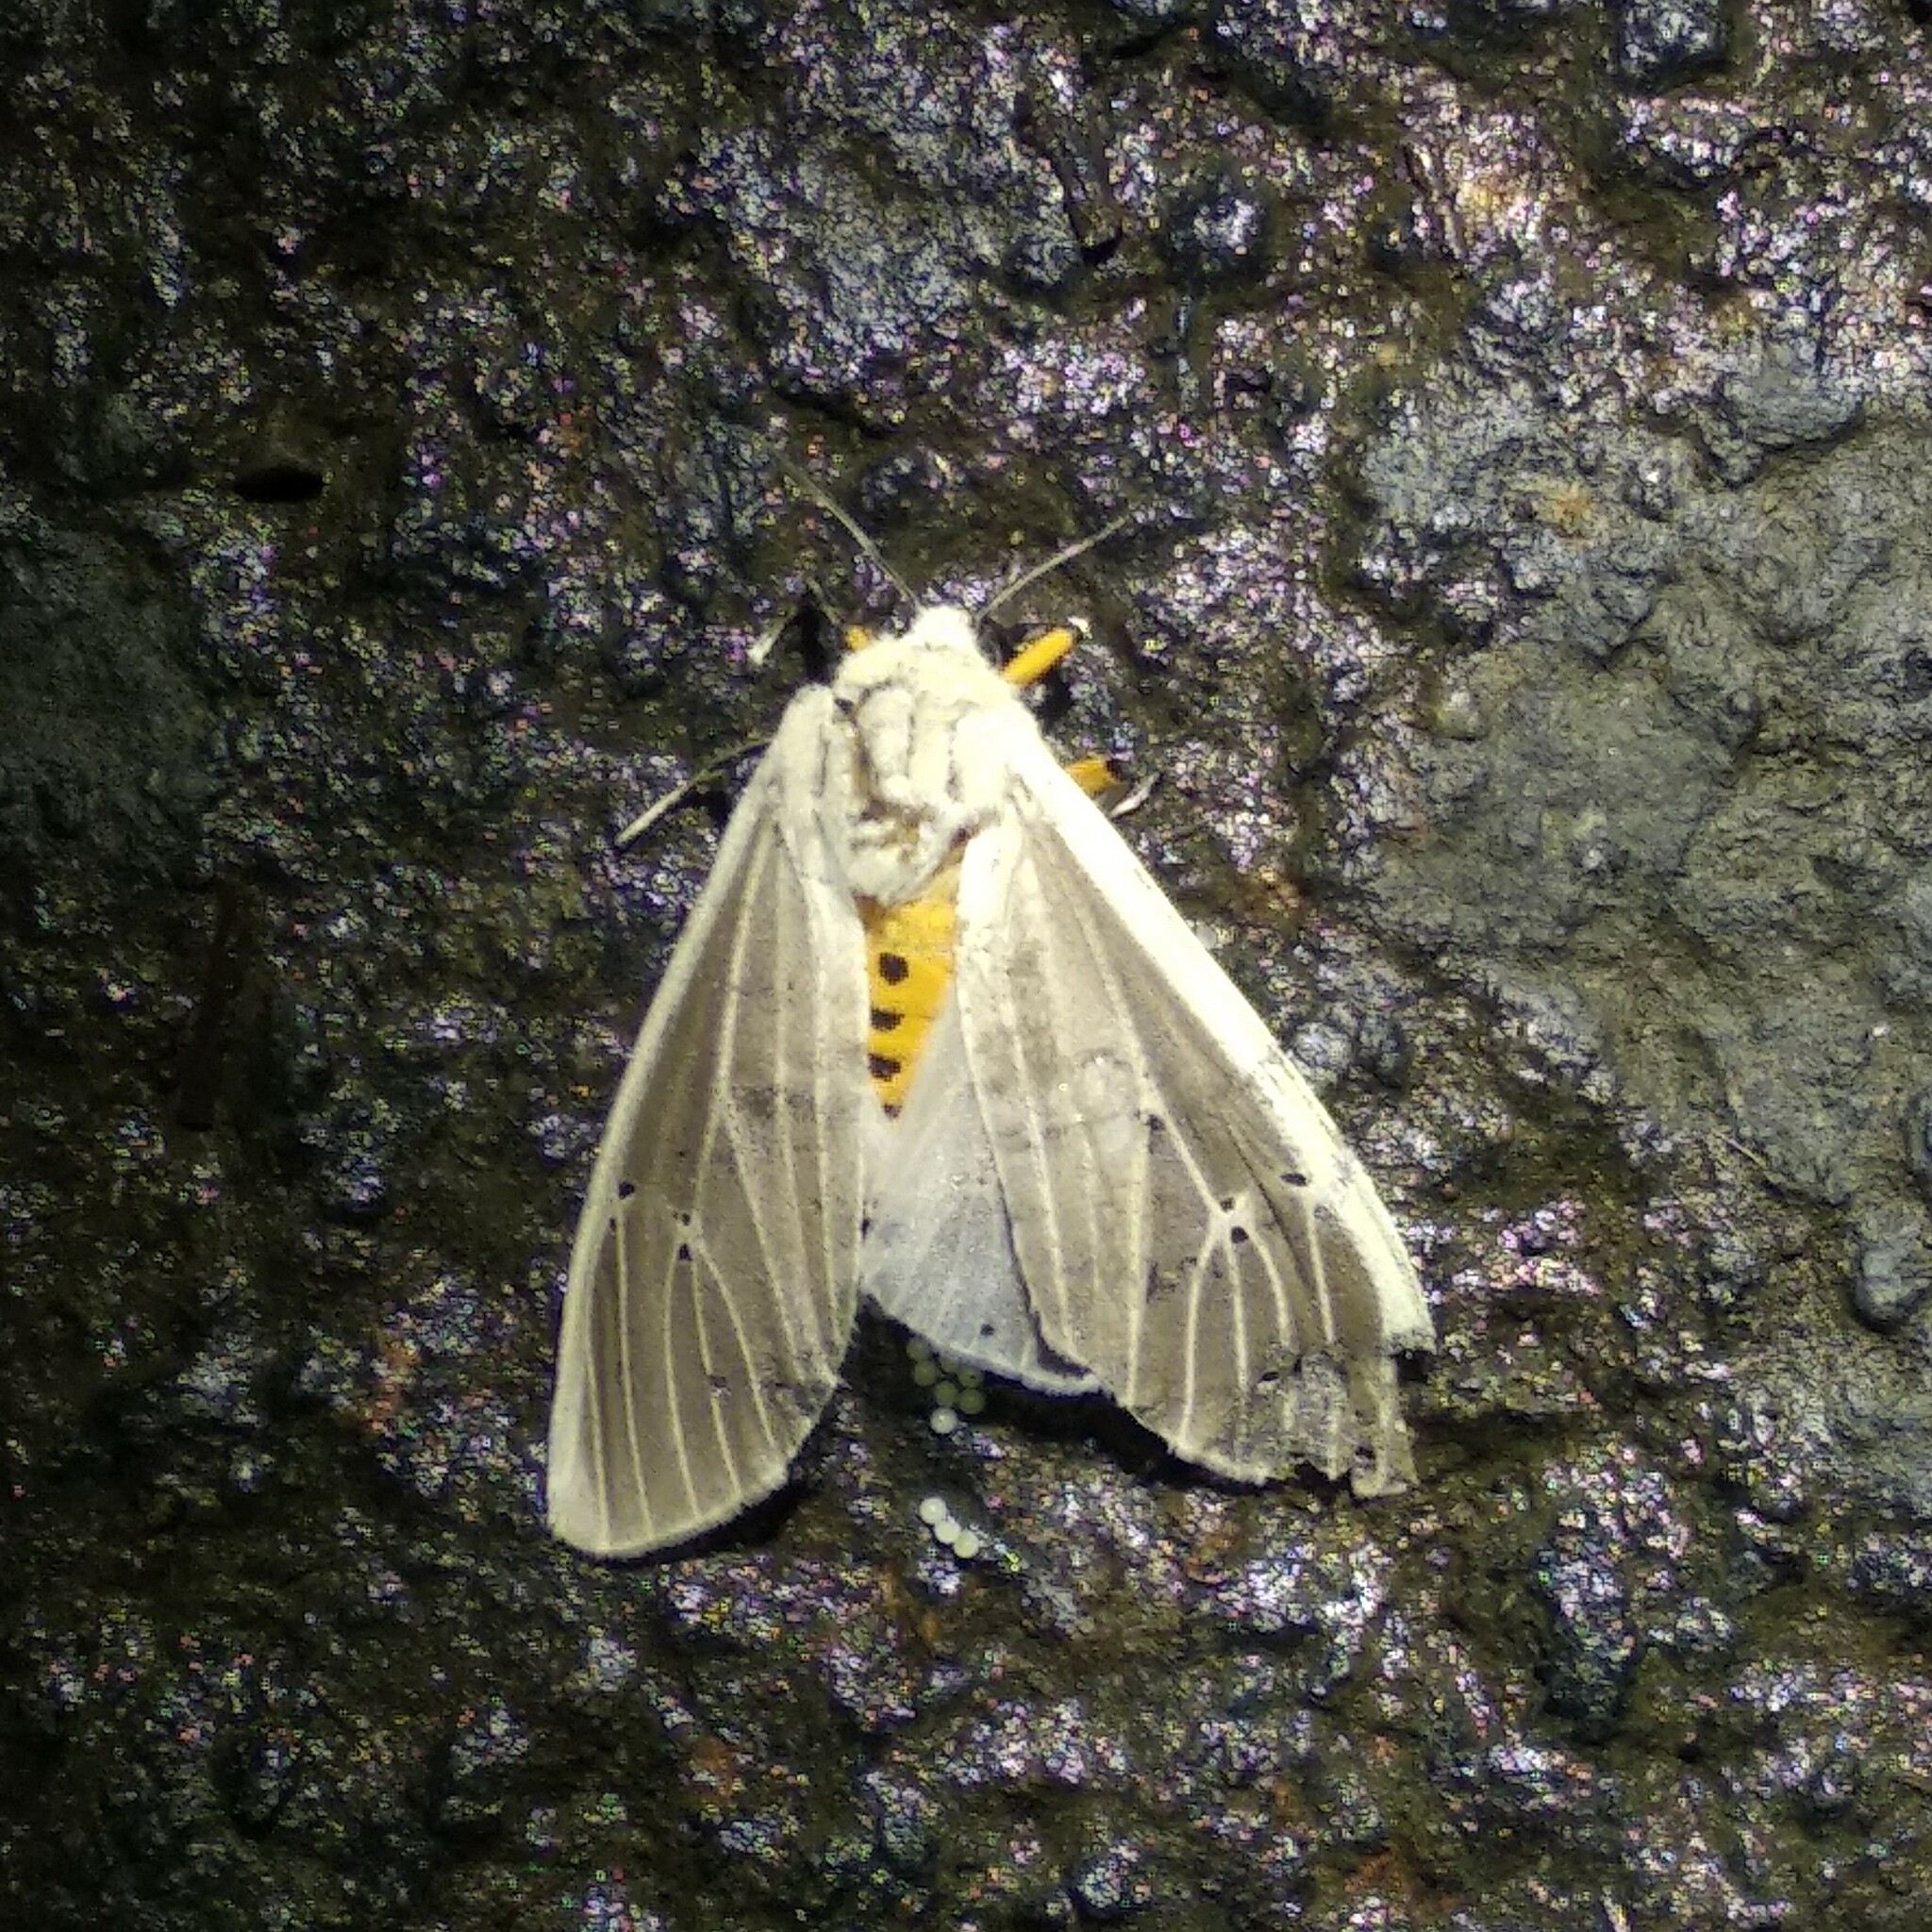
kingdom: Animalia
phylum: Arthropoda
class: Insecta
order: Lepidoptera
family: Erebidae
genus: Creatonotos
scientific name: Creatonotos transiens
